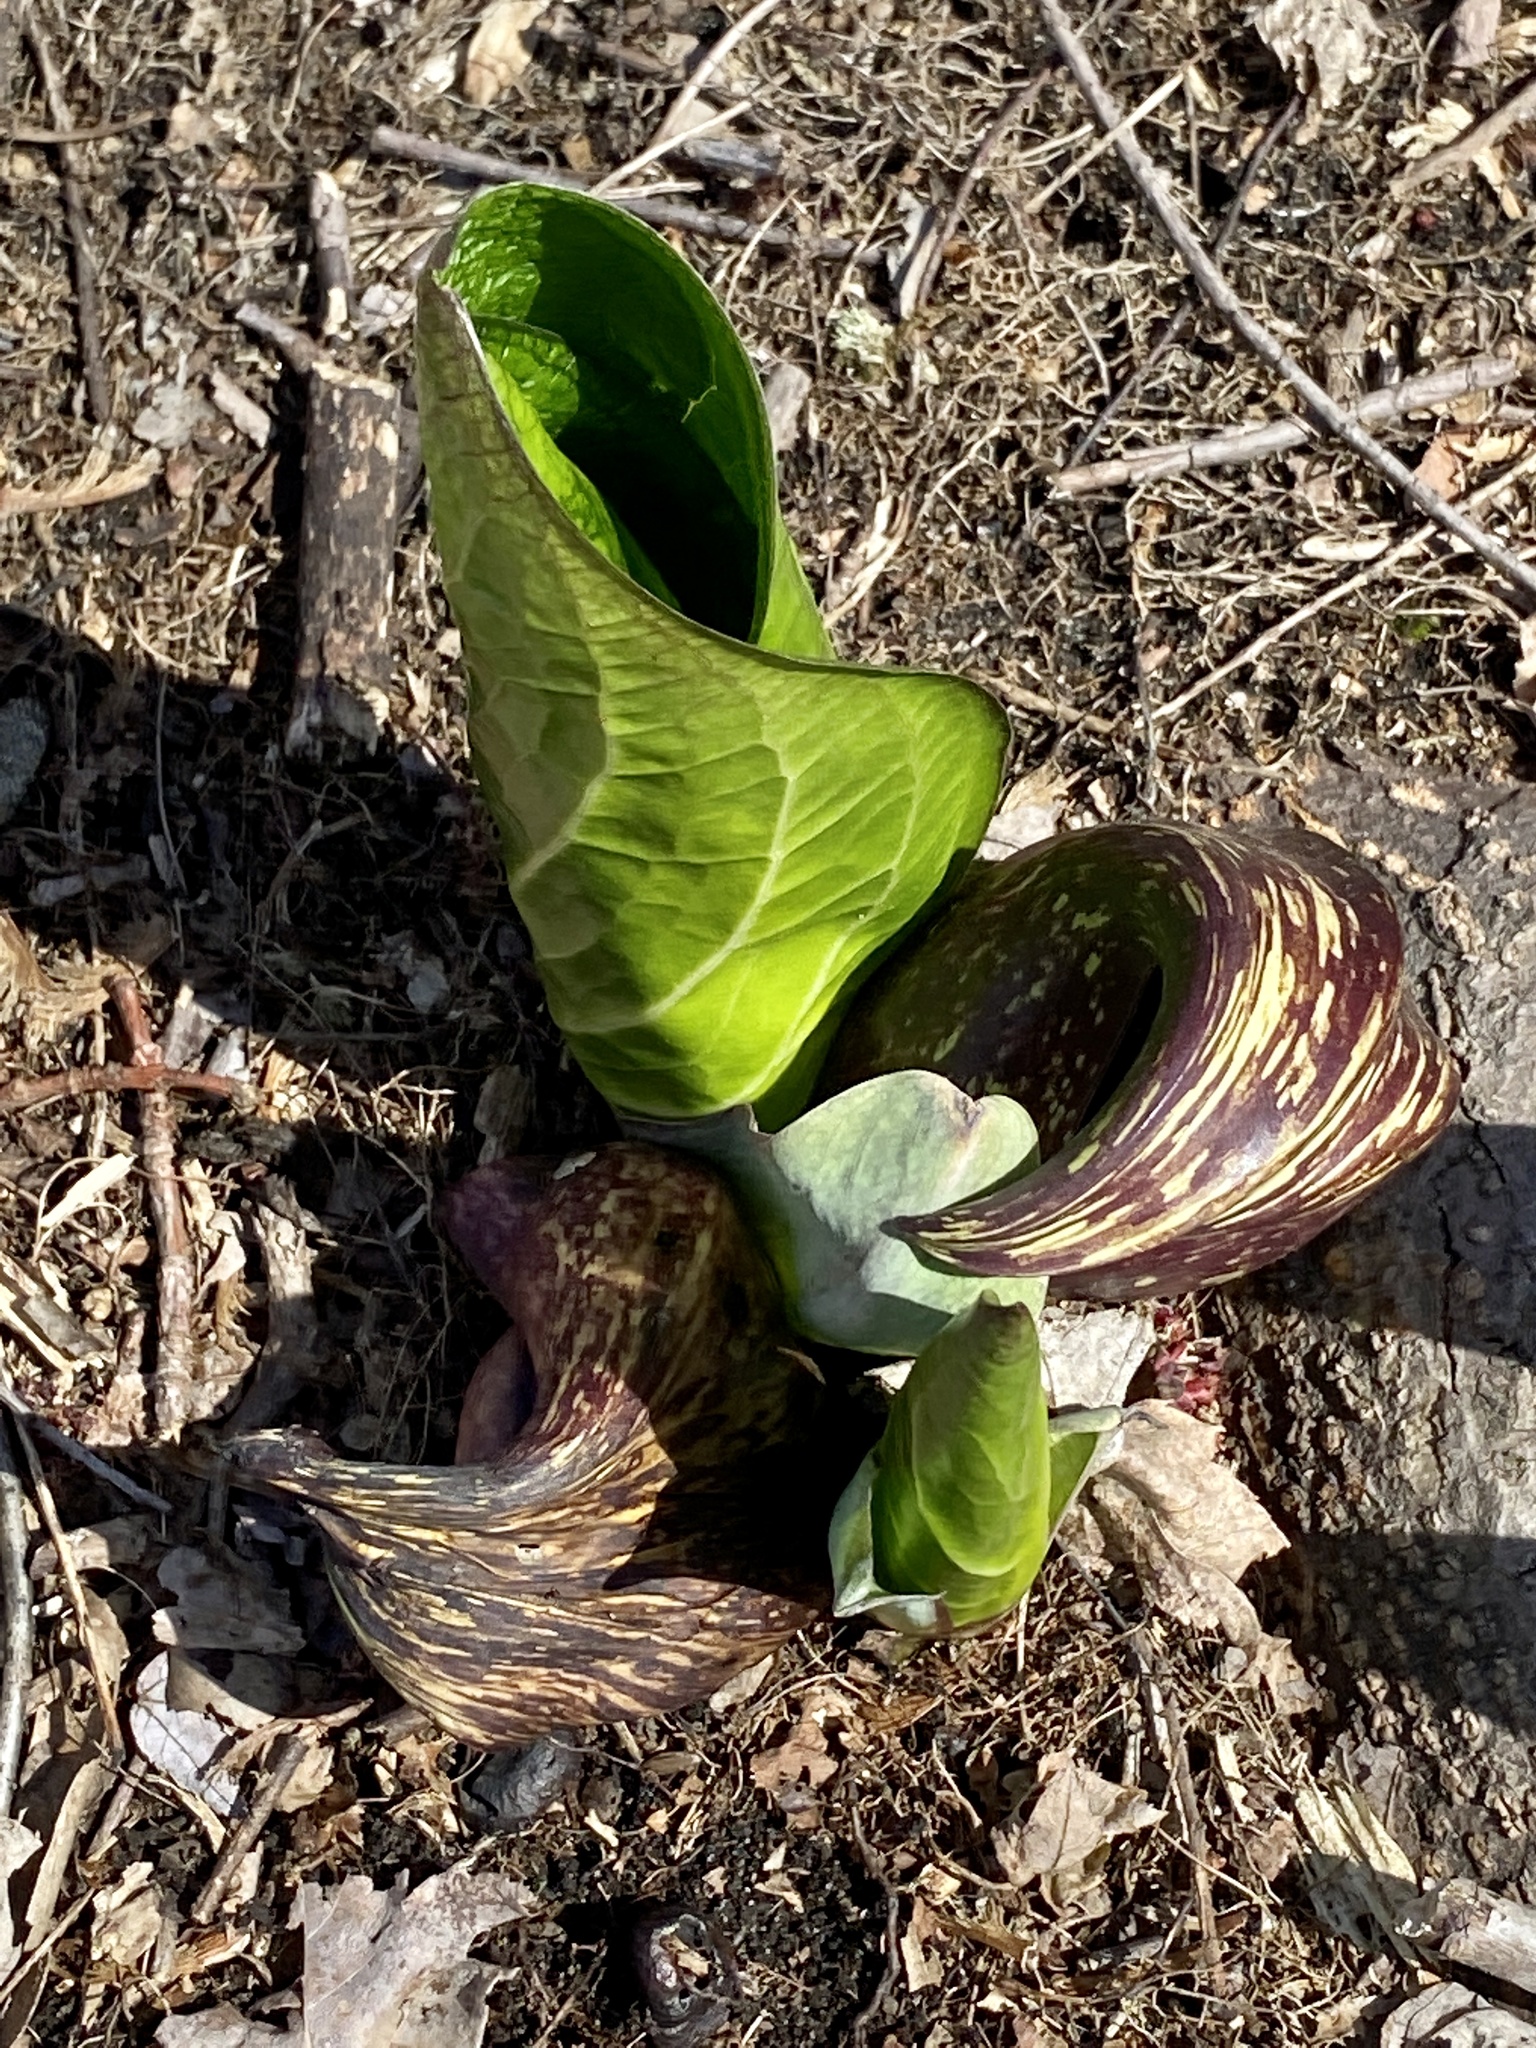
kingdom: Plantae
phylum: Tracheophyta
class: Liliopsida
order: Alismatales
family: Araceae
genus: Symplocarpus
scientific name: Symplocarpus foetidus
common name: Eastern skunk cabbage
